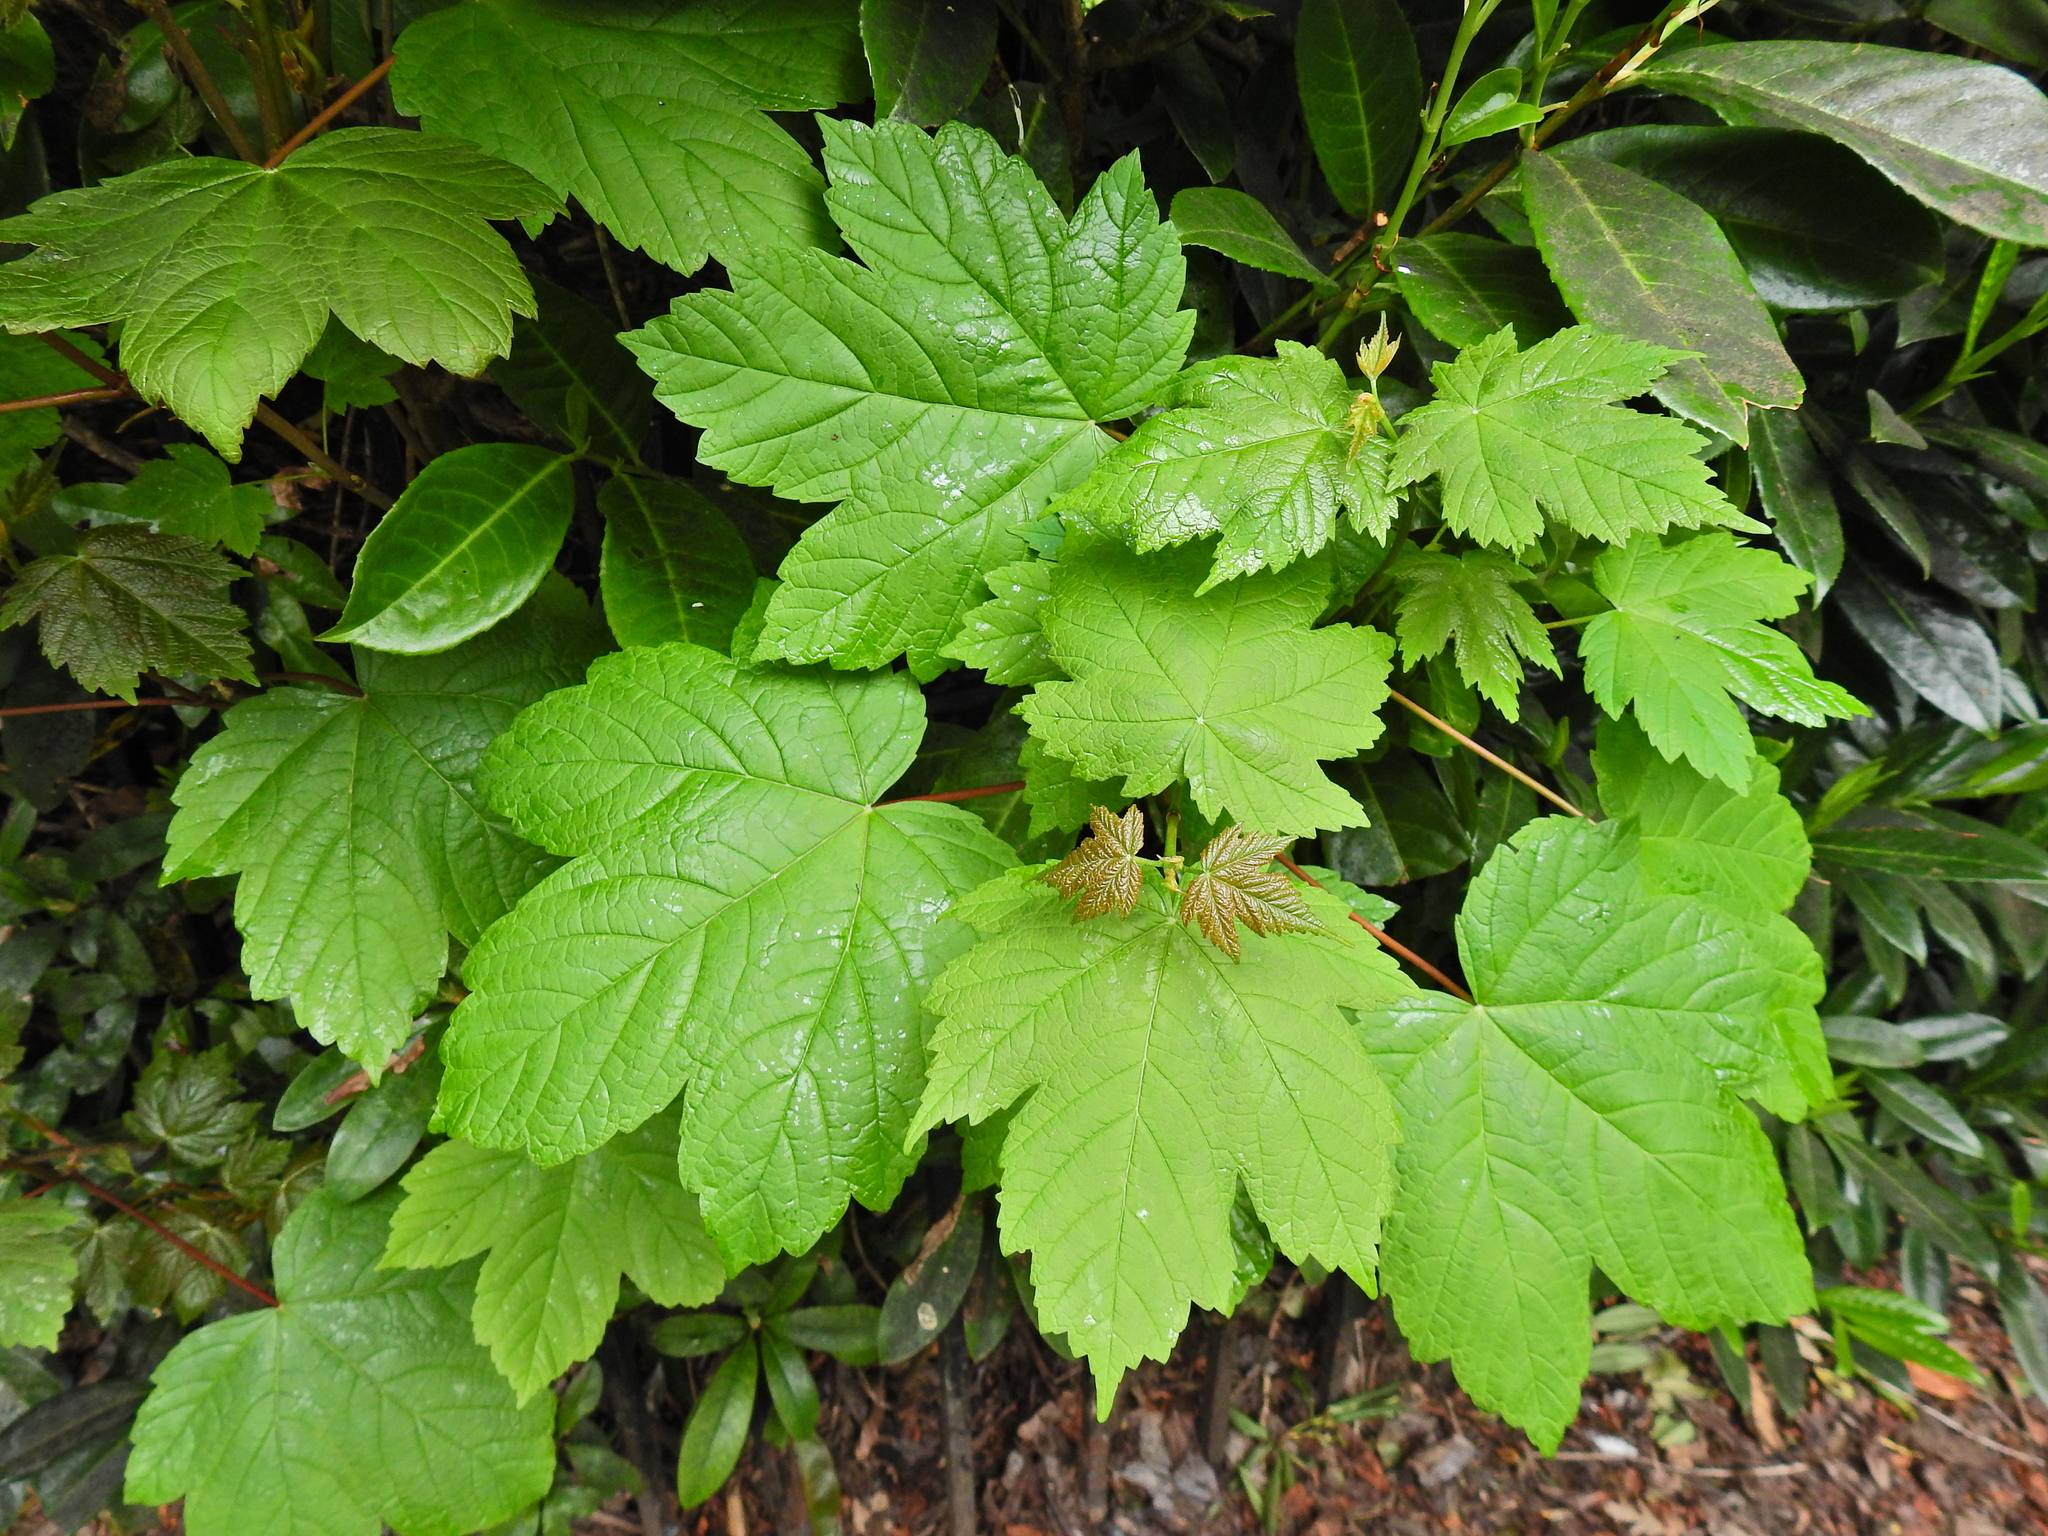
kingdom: Plantae
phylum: Tracheophyta
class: Magnoliopsida
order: Sapindales
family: Sapindaceae
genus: Acer
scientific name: Acer pseudoplatanus
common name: Sycamore
